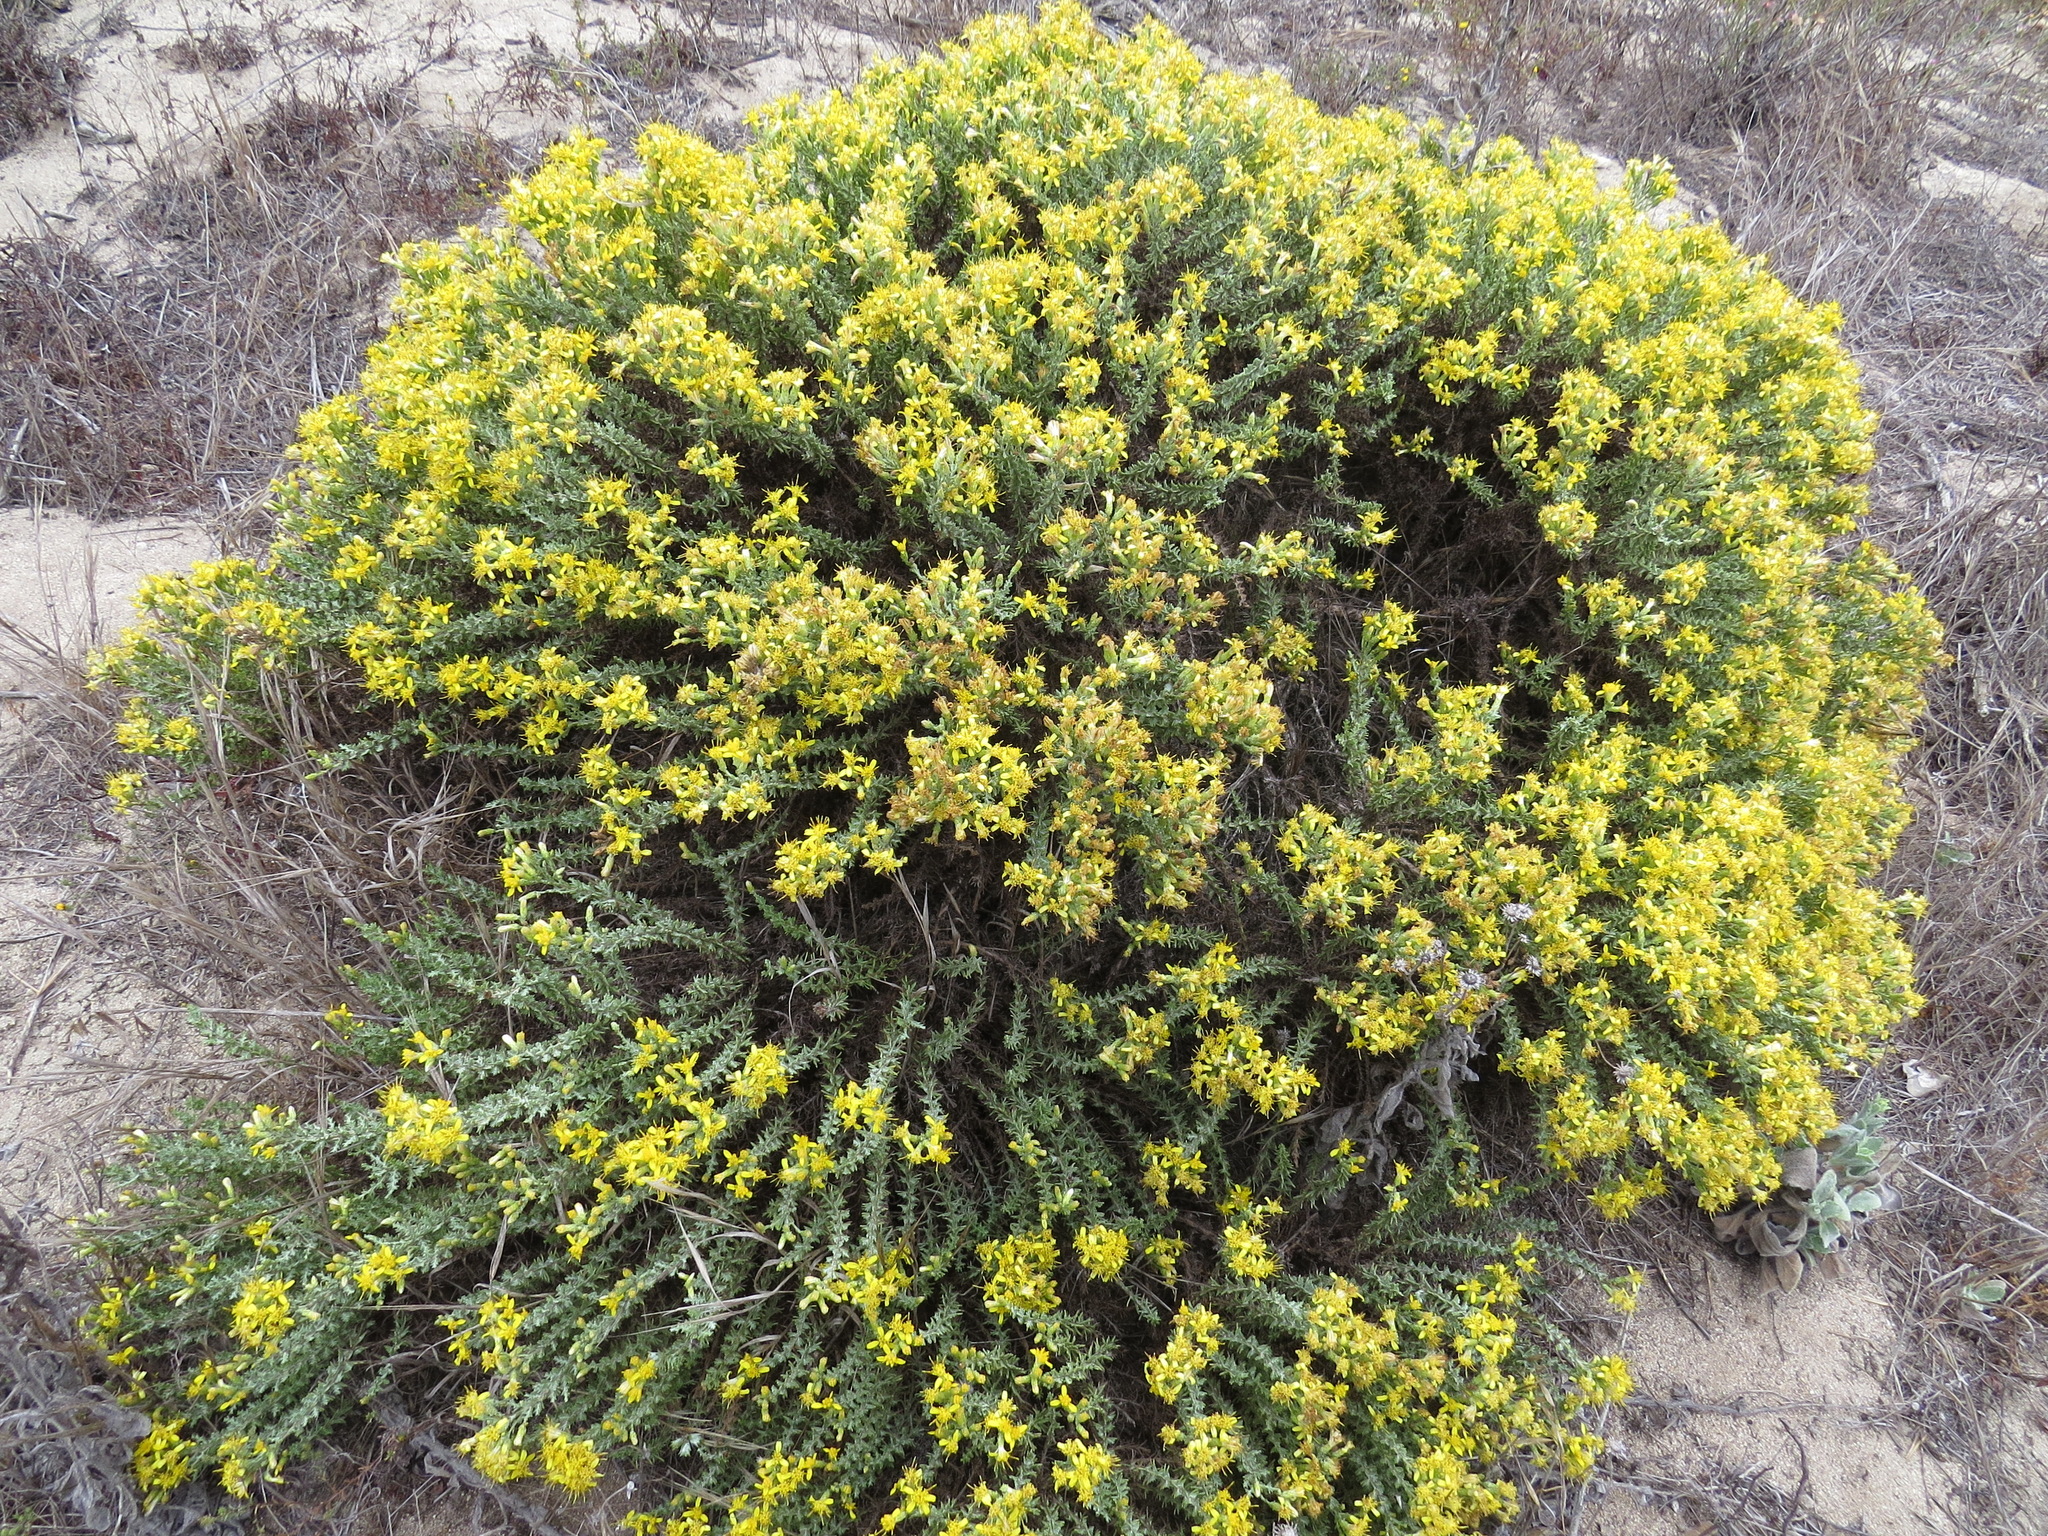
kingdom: Plantae
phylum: Tracheophyta
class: Magnoliopsida
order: Asterales
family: Asteraceae
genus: Ericameria
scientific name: Ericameria ericoides
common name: California goldenbush
